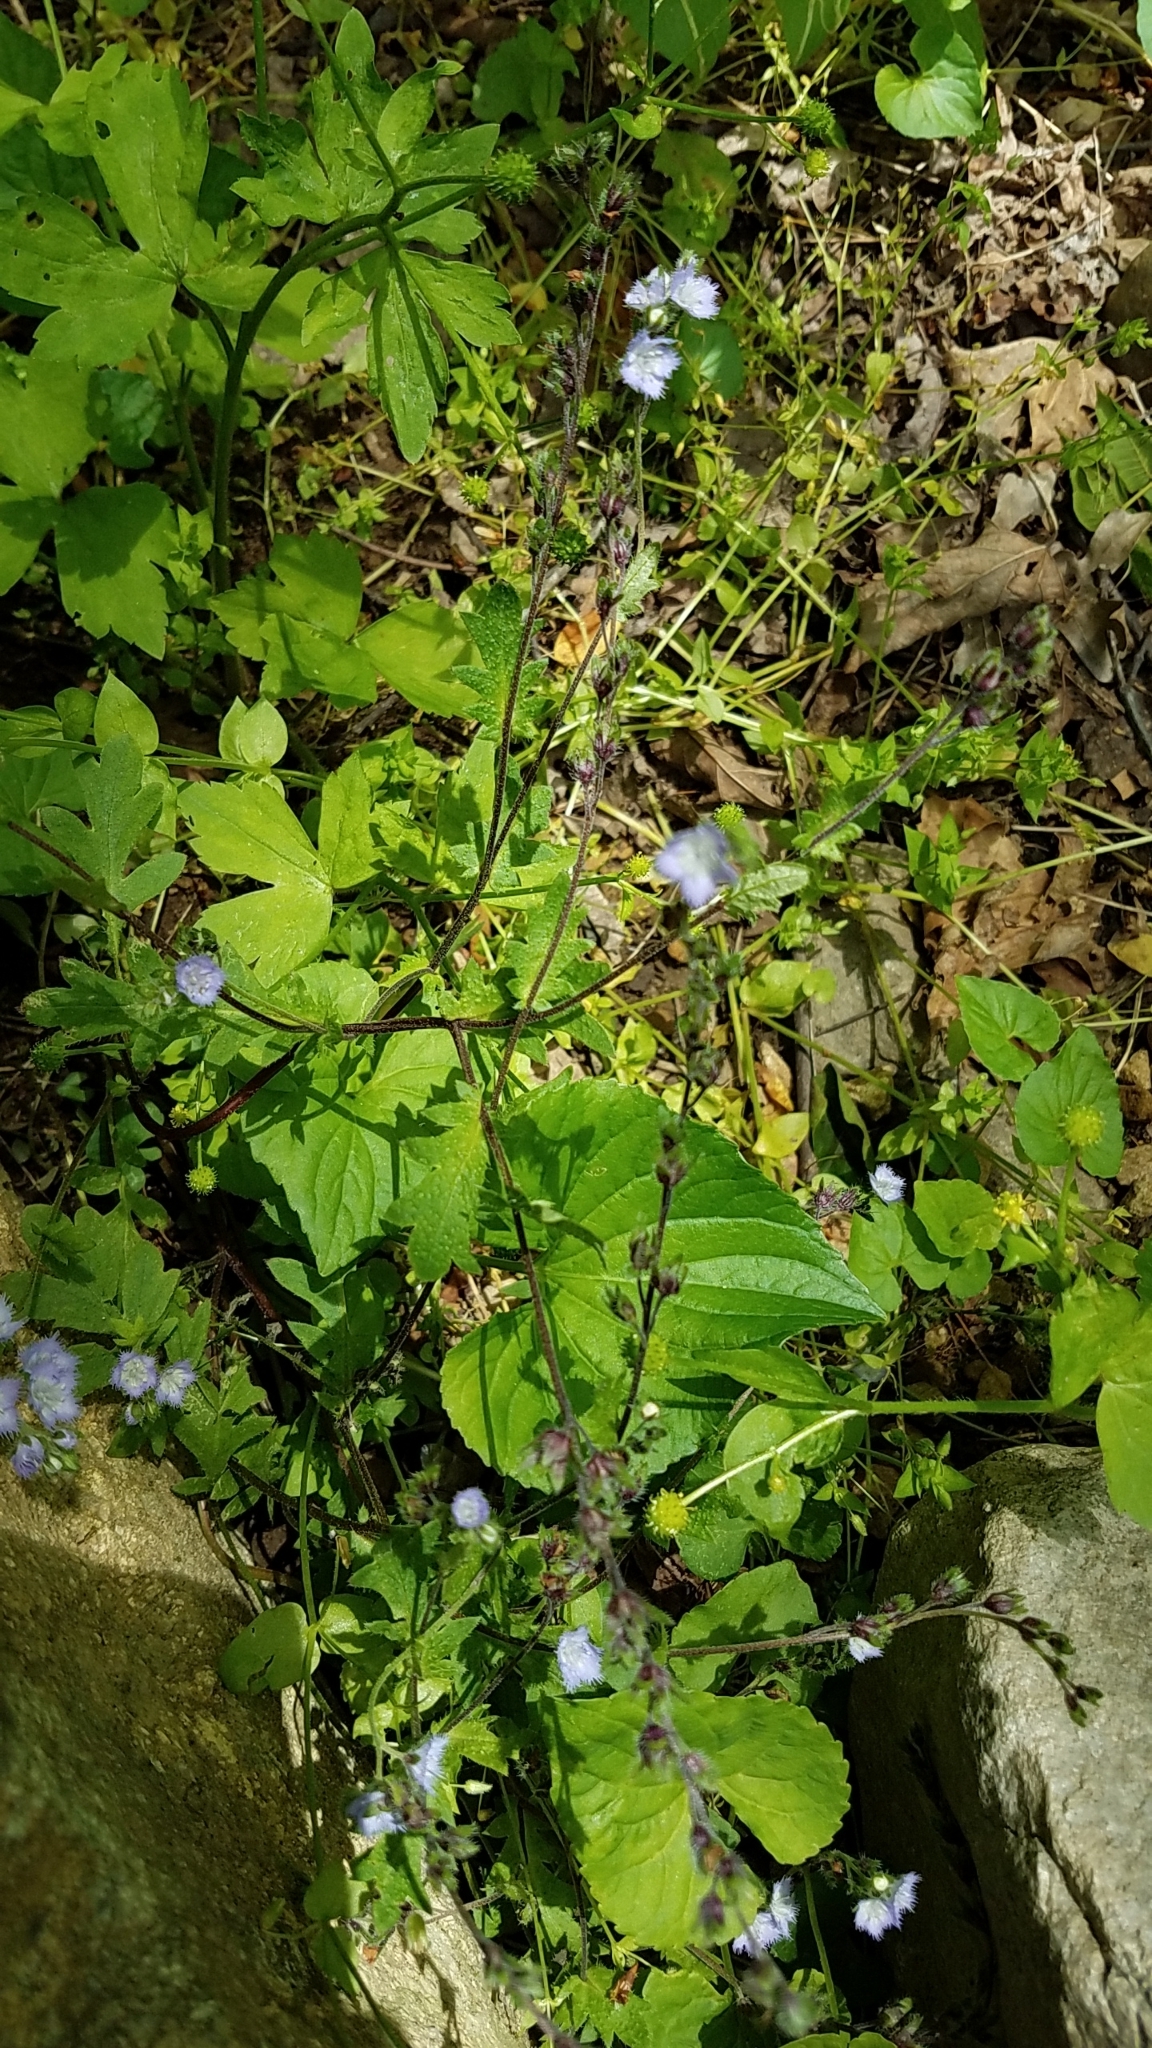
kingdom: Plantae
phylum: Tracheophyta
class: Magnoliopsida
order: Boraginales
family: Hydrophyllaceae
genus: Phacelia
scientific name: Phacelia purshii
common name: Miami-mist
